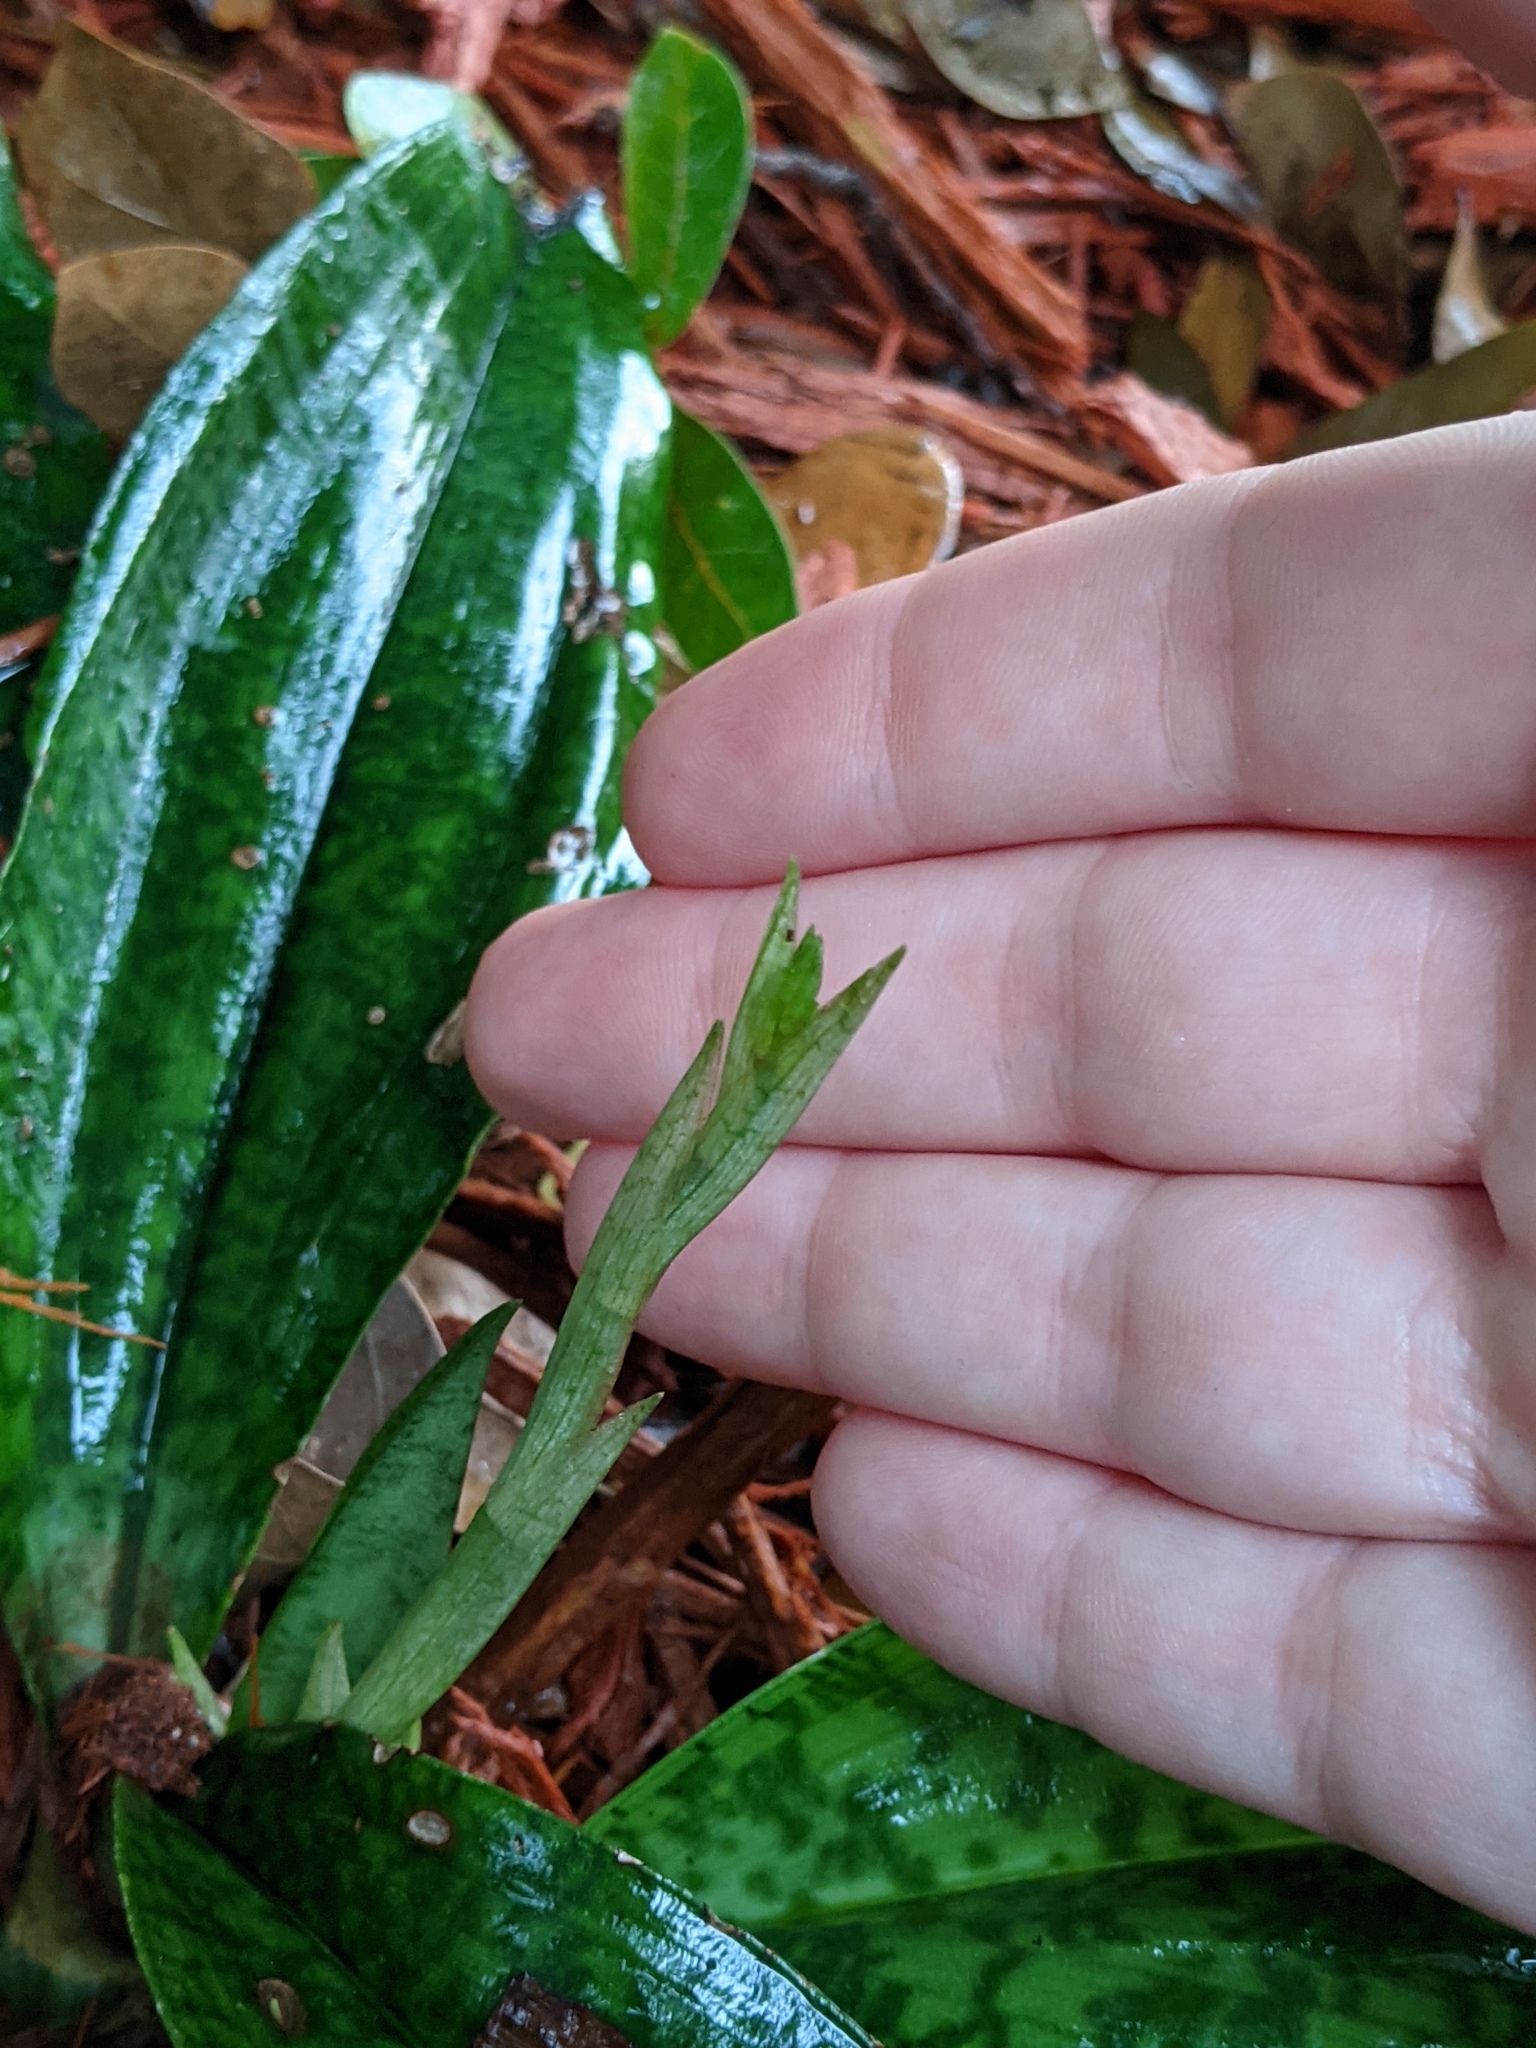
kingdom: Plantae
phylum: Tracheophyta
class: Liliopsida
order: Asparagales
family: Orchidaceae
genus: Eulophia
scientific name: Eulophia maculata
